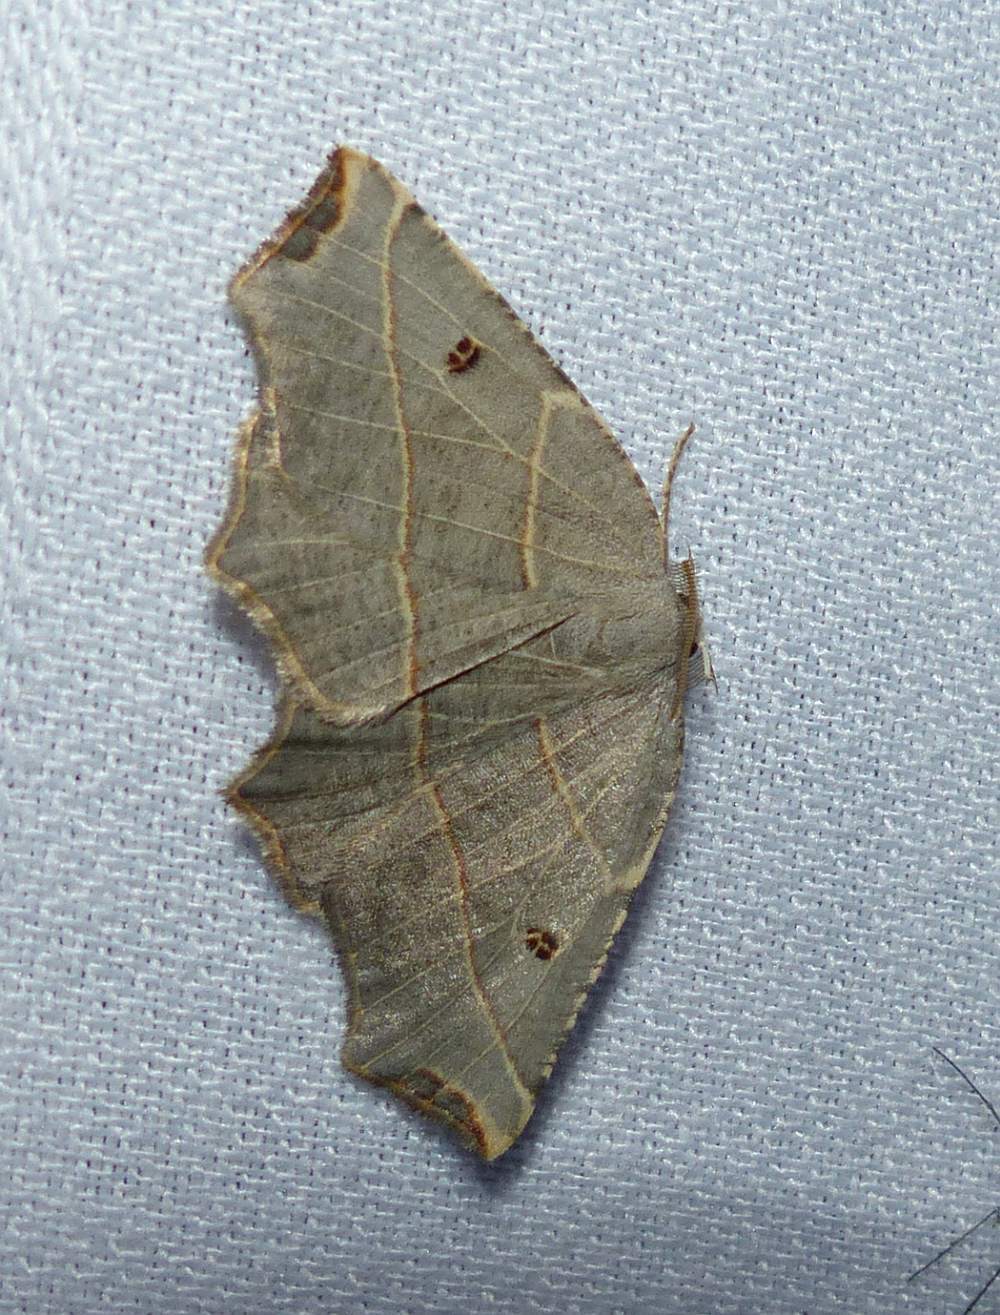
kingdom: Animalia
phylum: Arthropoda
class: Insecta
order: Lepidoptera
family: Geometridae
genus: Metanema
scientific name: Metanema inatomaria
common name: Pale metanema
